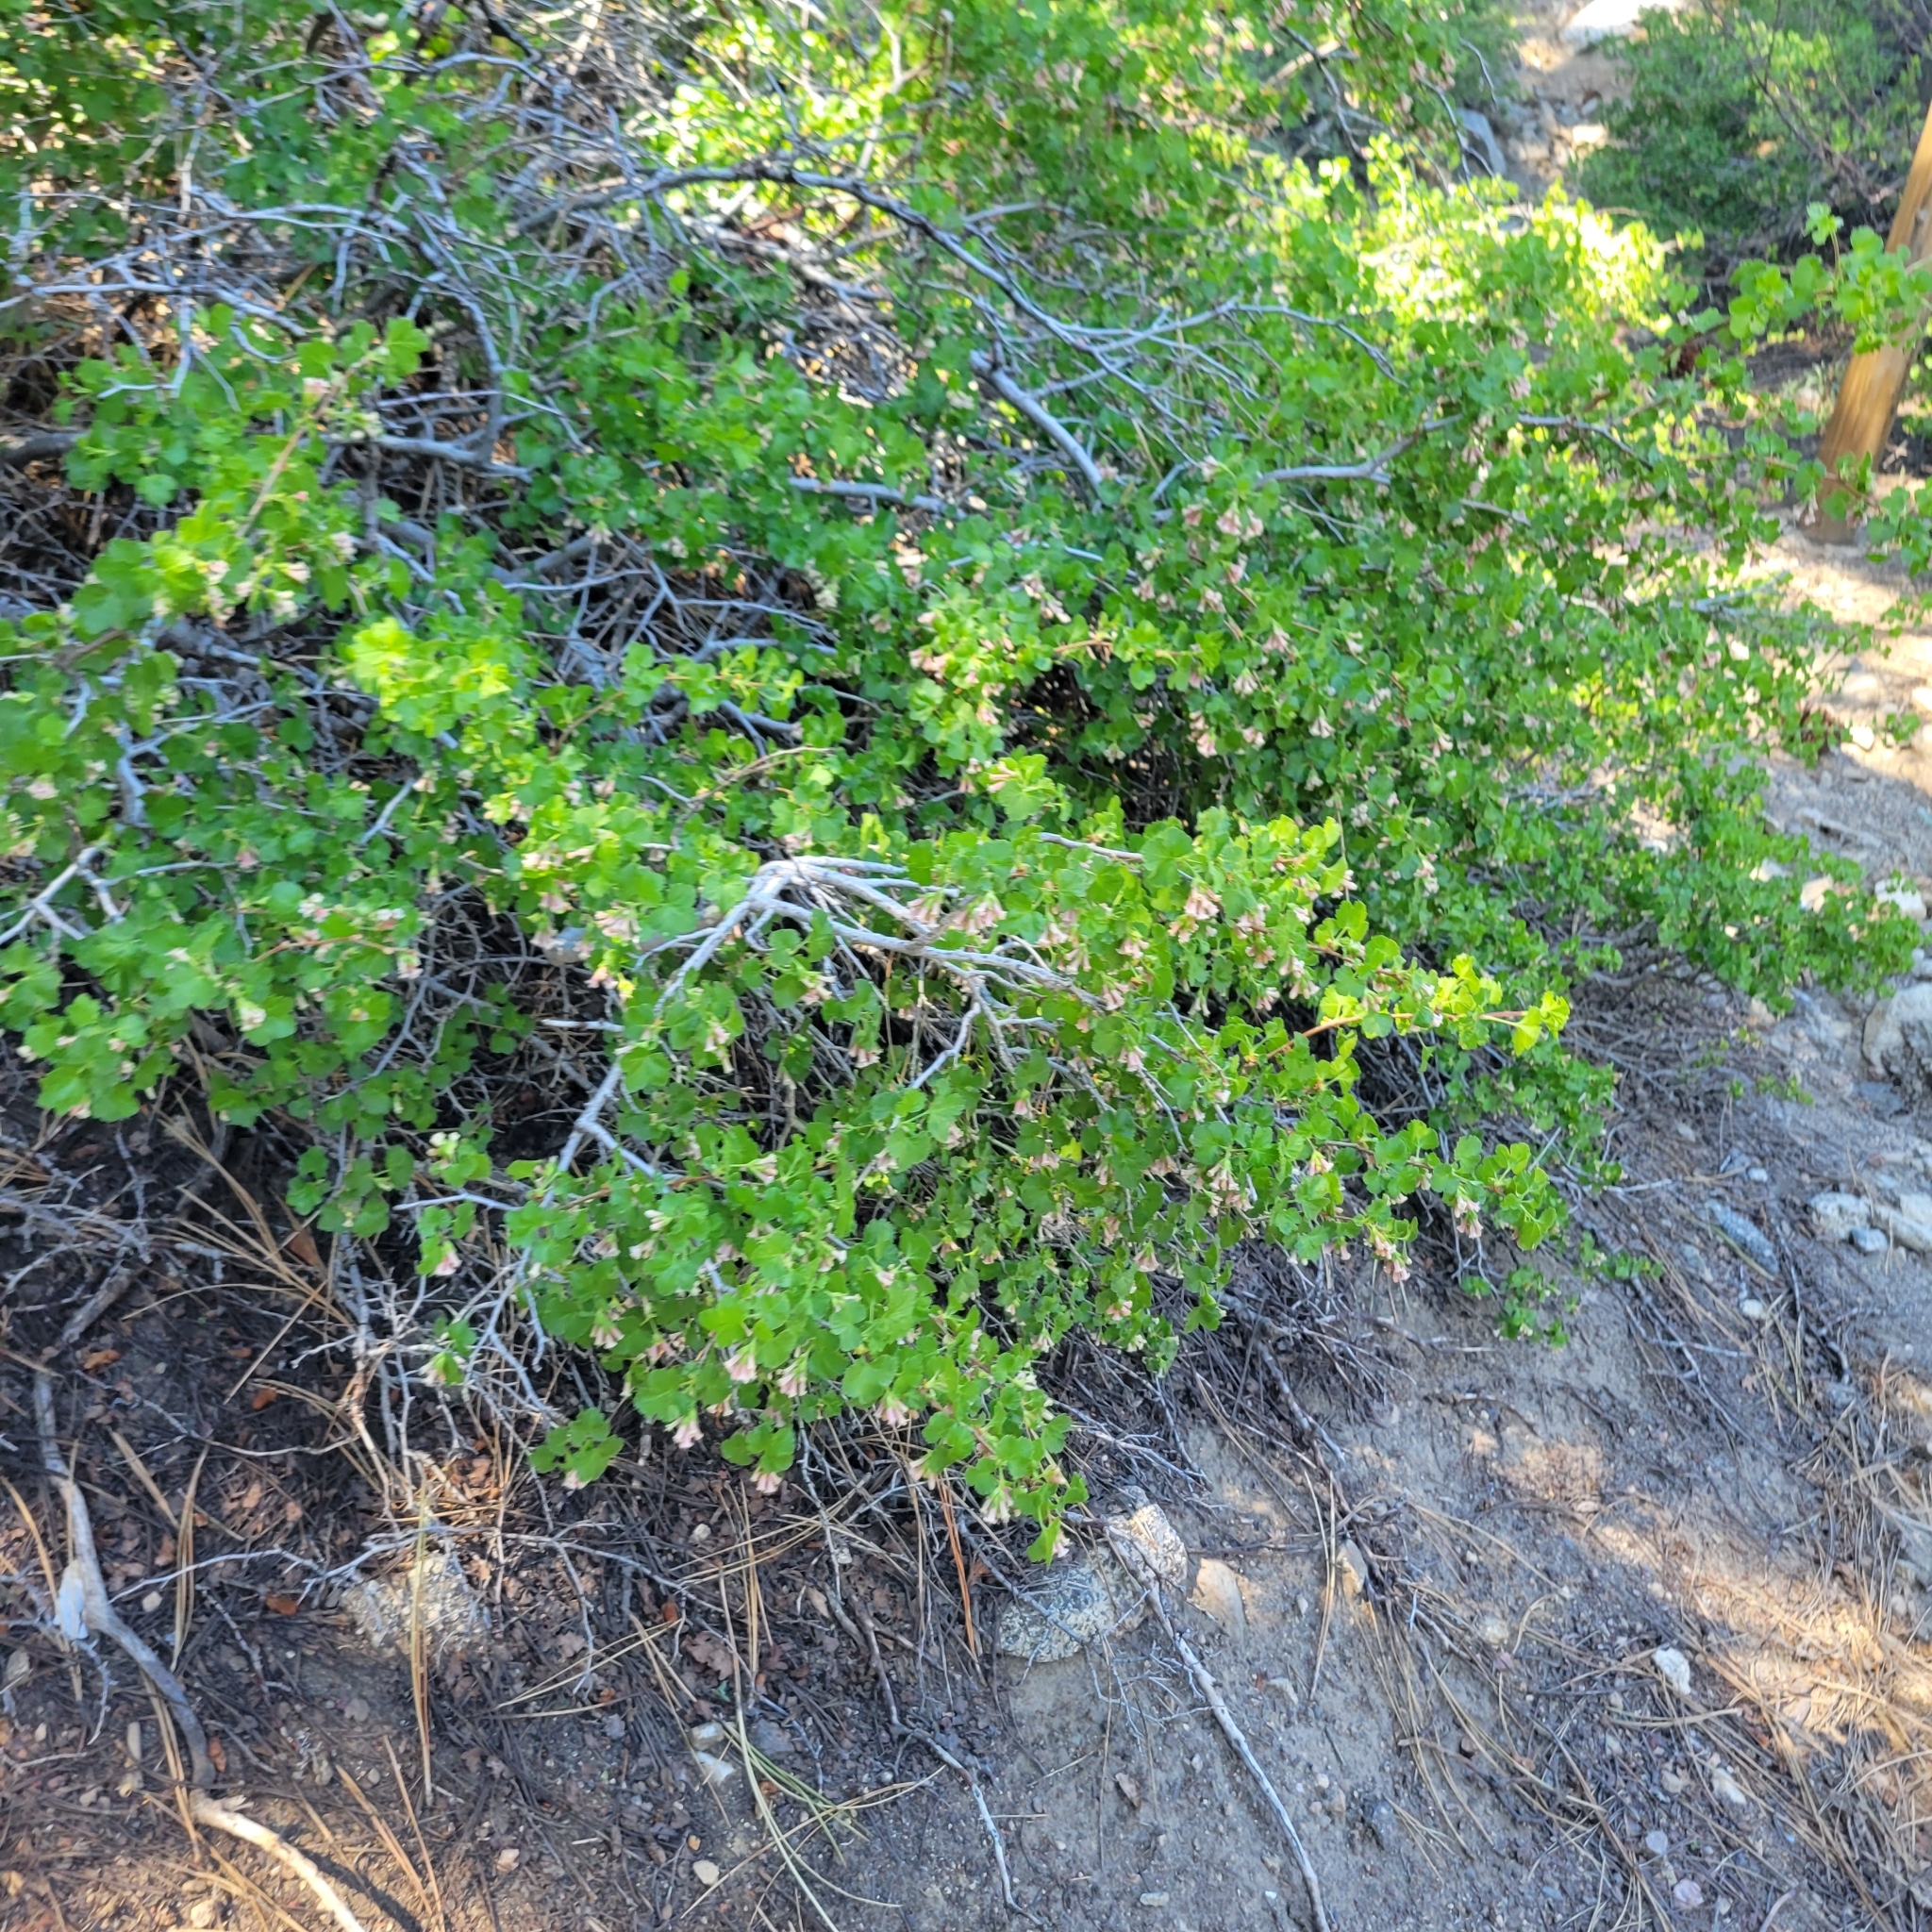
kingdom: Plantae
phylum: Tracheophyta
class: Magnoliopsida
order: Saxifragales
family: Grossulariaceae
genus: Ribes
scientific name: Ribes cereum
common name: Wax currant
